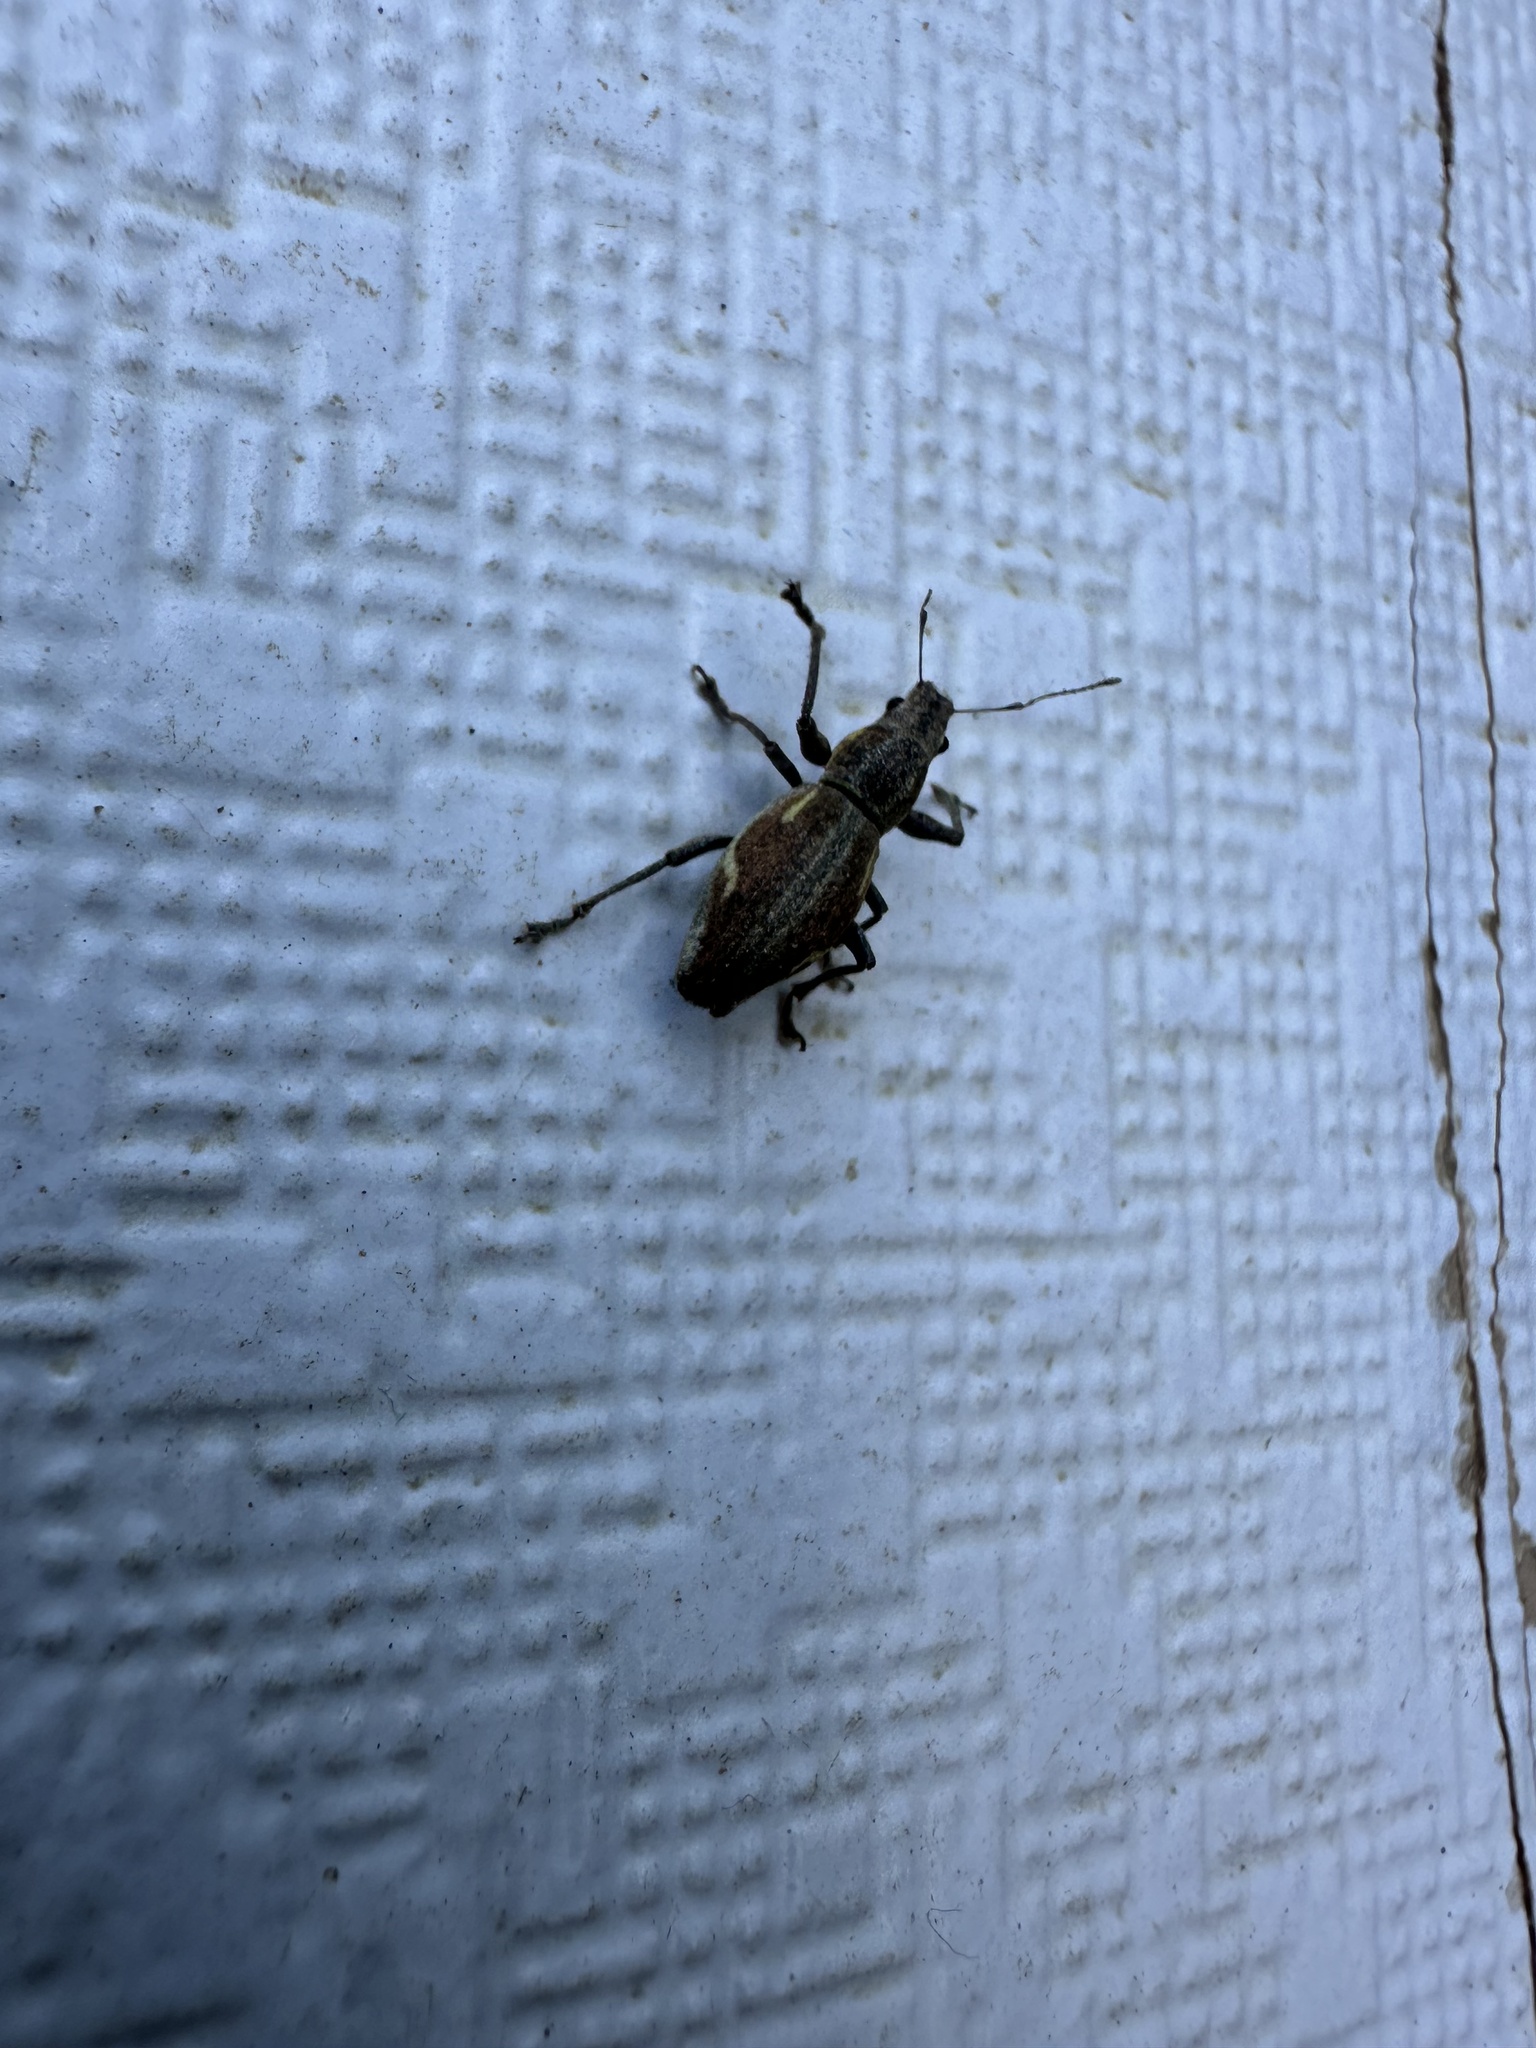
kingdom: Animalia
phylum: Arthropoda
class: Insecta
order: Coleoptera
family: Curculionidae
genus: Naupactus
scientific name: Naupactus xanthographus
